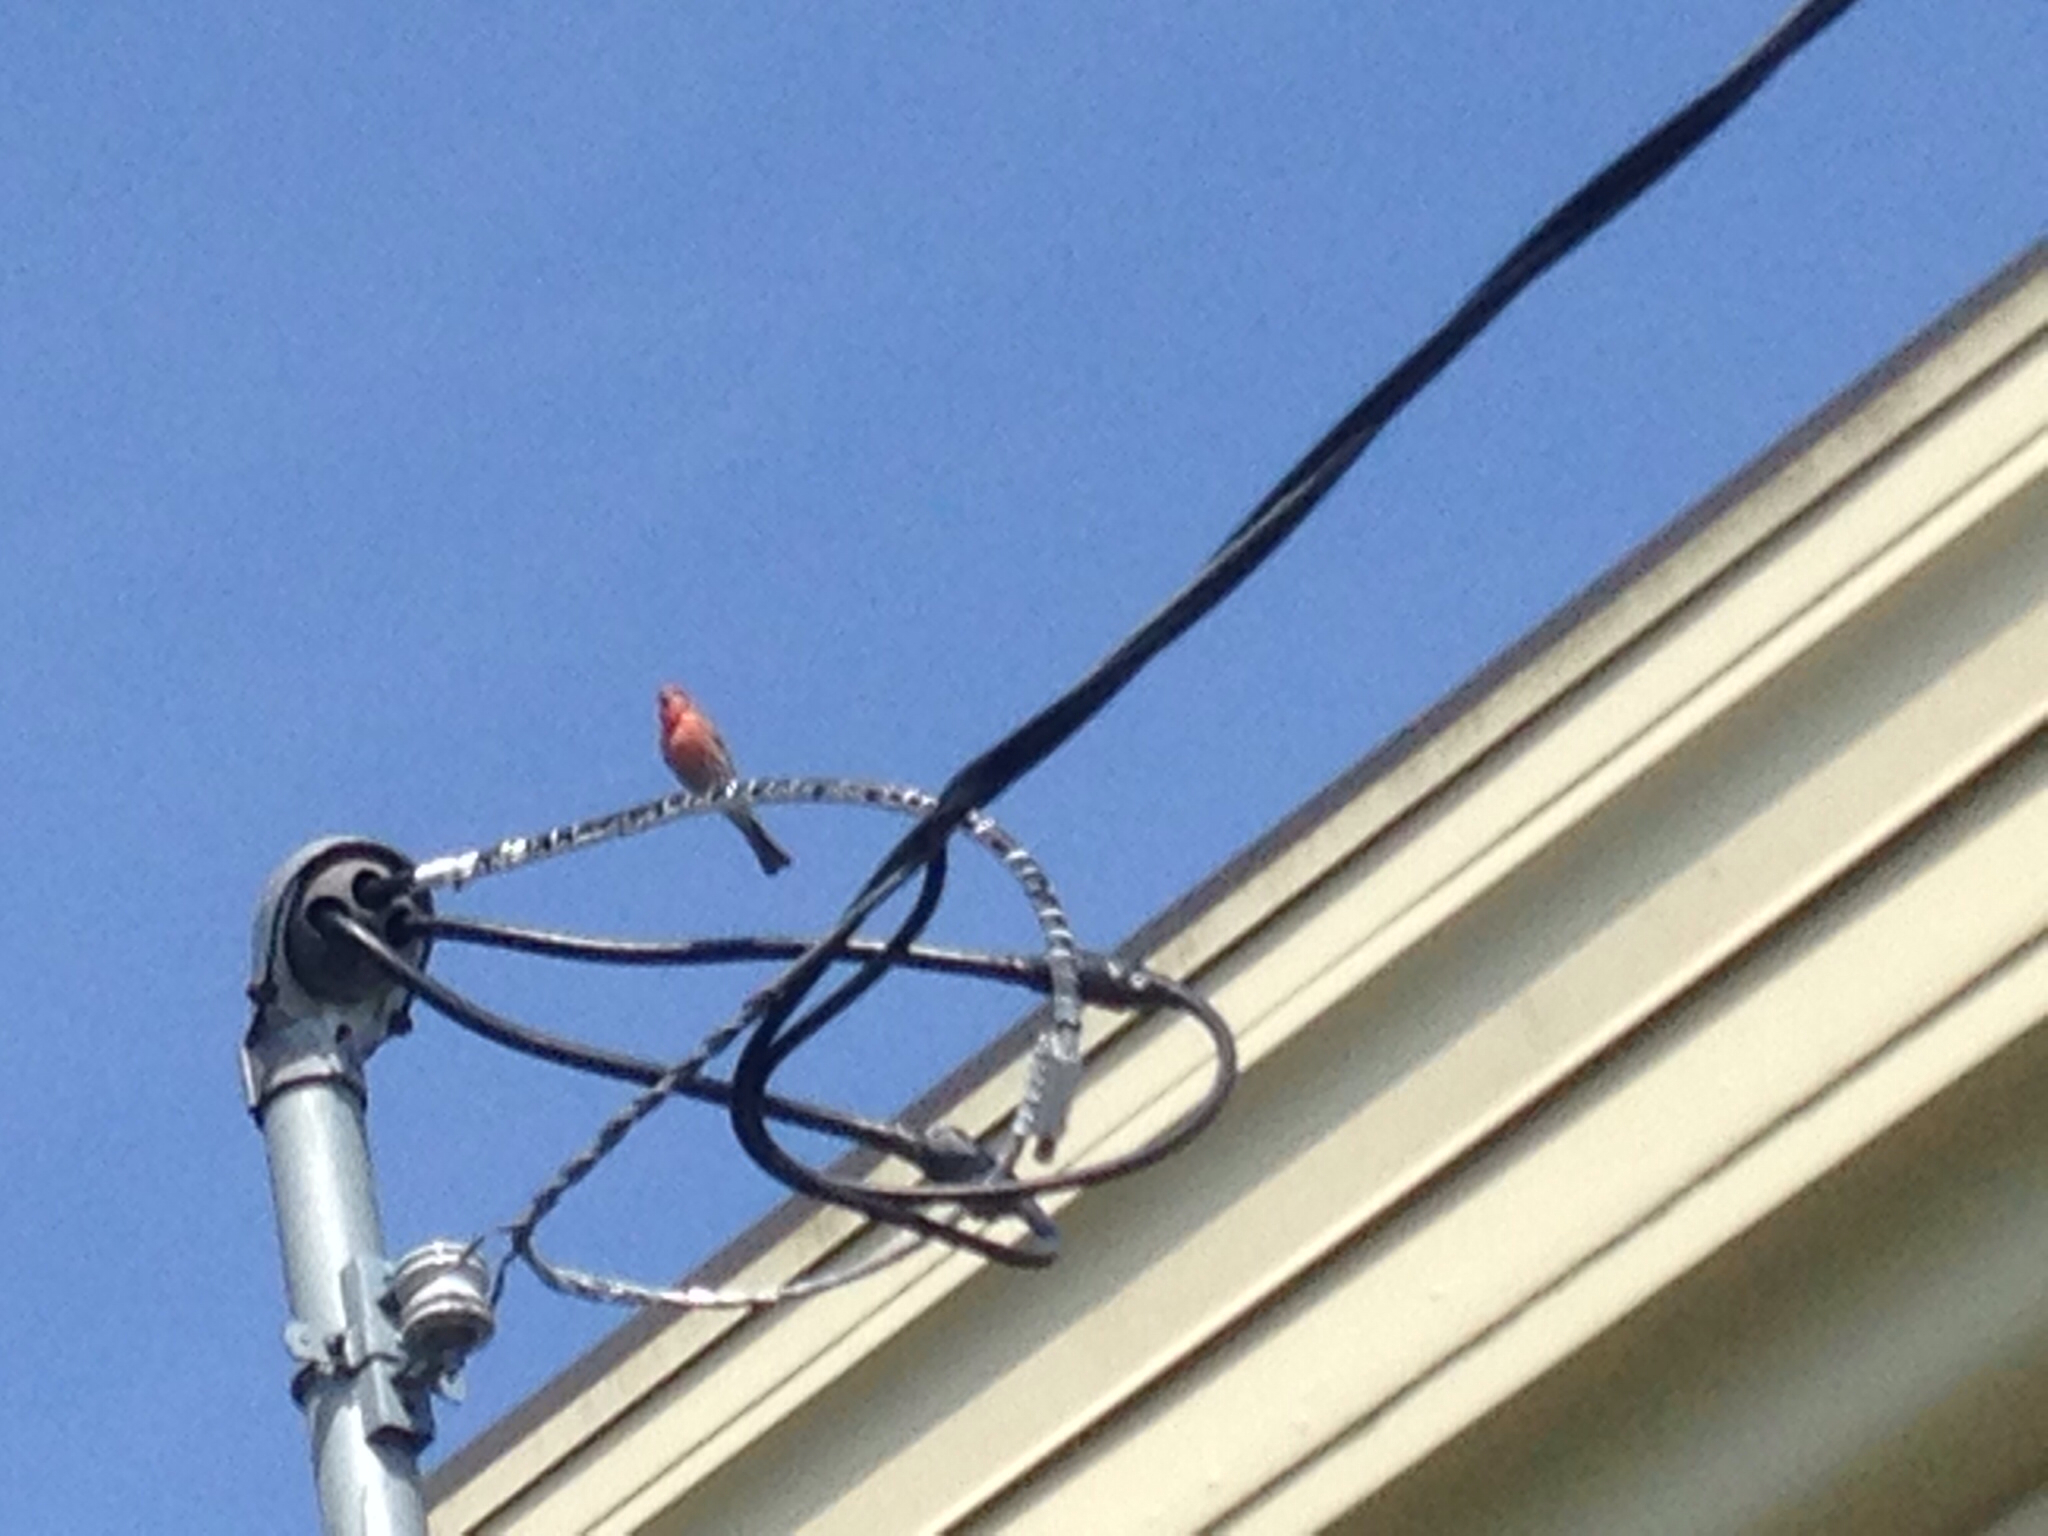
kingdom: Animalia
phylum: Chordata
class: Aves
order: Passeriformes
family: Fringillidae
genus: Haemorhous
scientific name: Haemorhous mexicanus
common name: House finch
